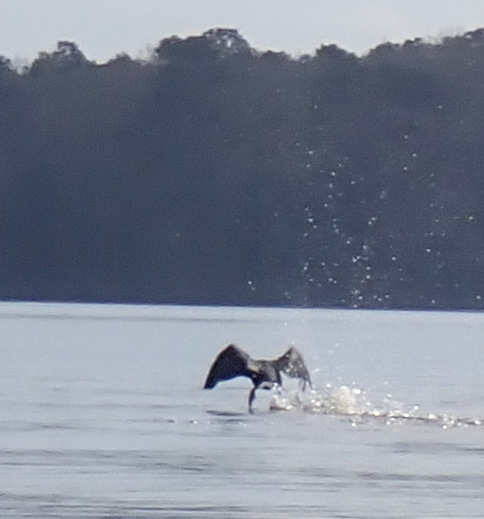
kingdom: Animalia
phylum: Chordata
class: Aves
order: Suliformes
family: Phalacrocoracidae
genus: Phalacrocorax
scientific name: Phalacrocorax auritus
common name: Double-crested cormorant
